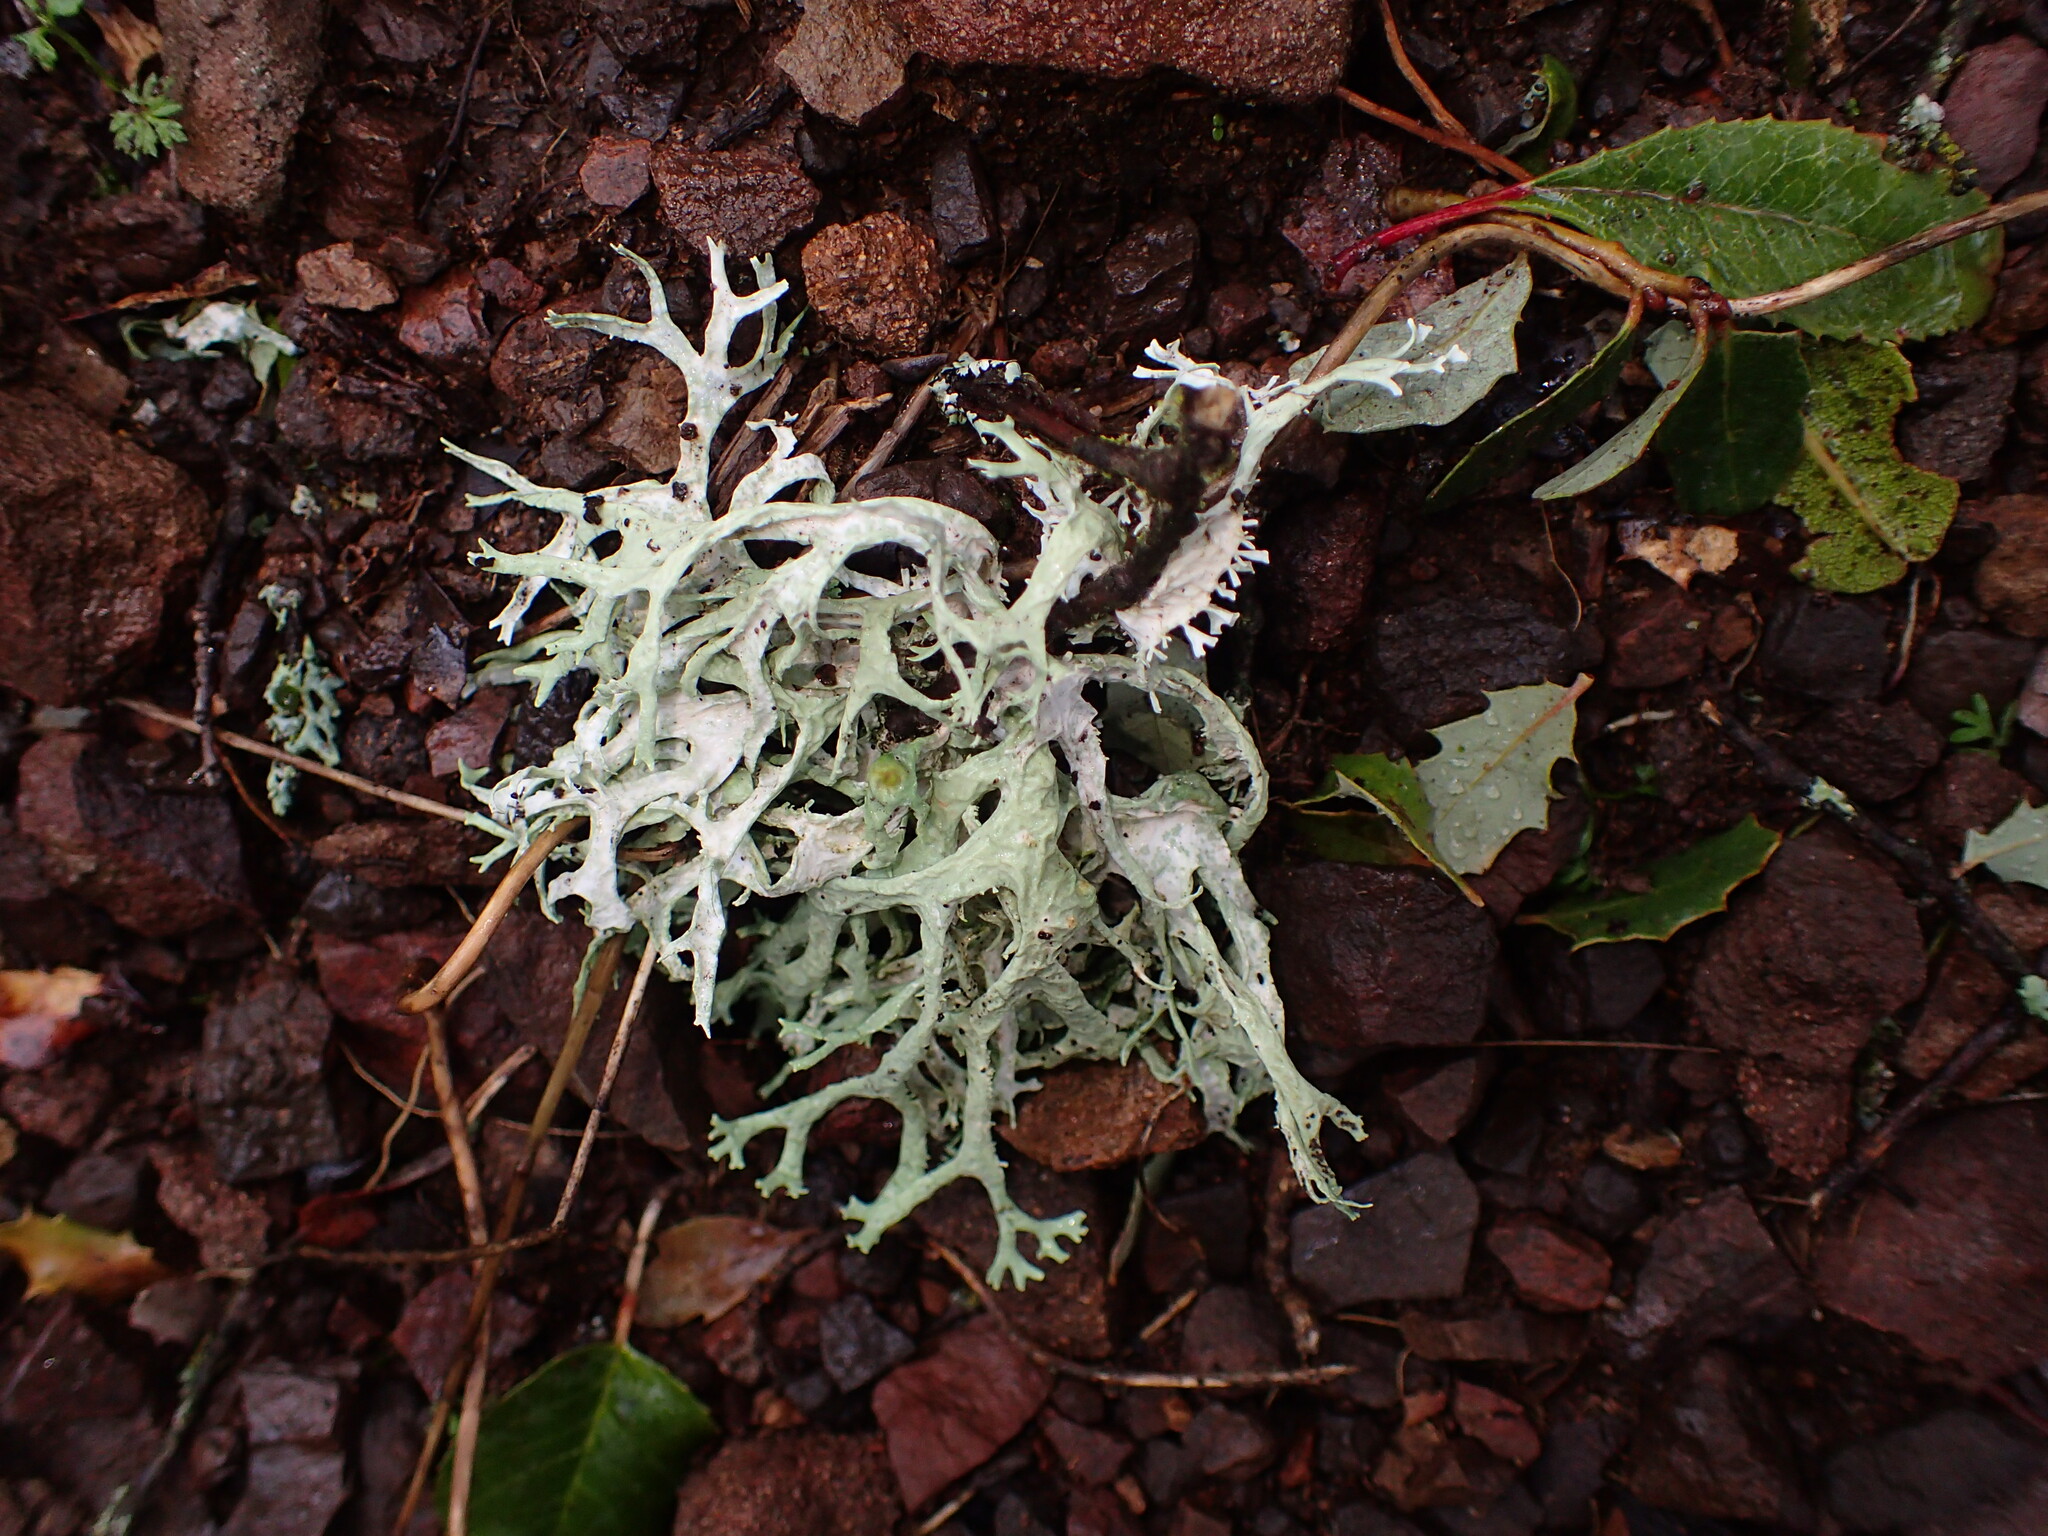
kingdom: Fungi
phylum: Ascomycota
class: Lecanoromycetes
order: Lecanorales
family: Parmeliaceae
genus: Evernia
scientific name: Evernia prunastri
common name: Oak moss
